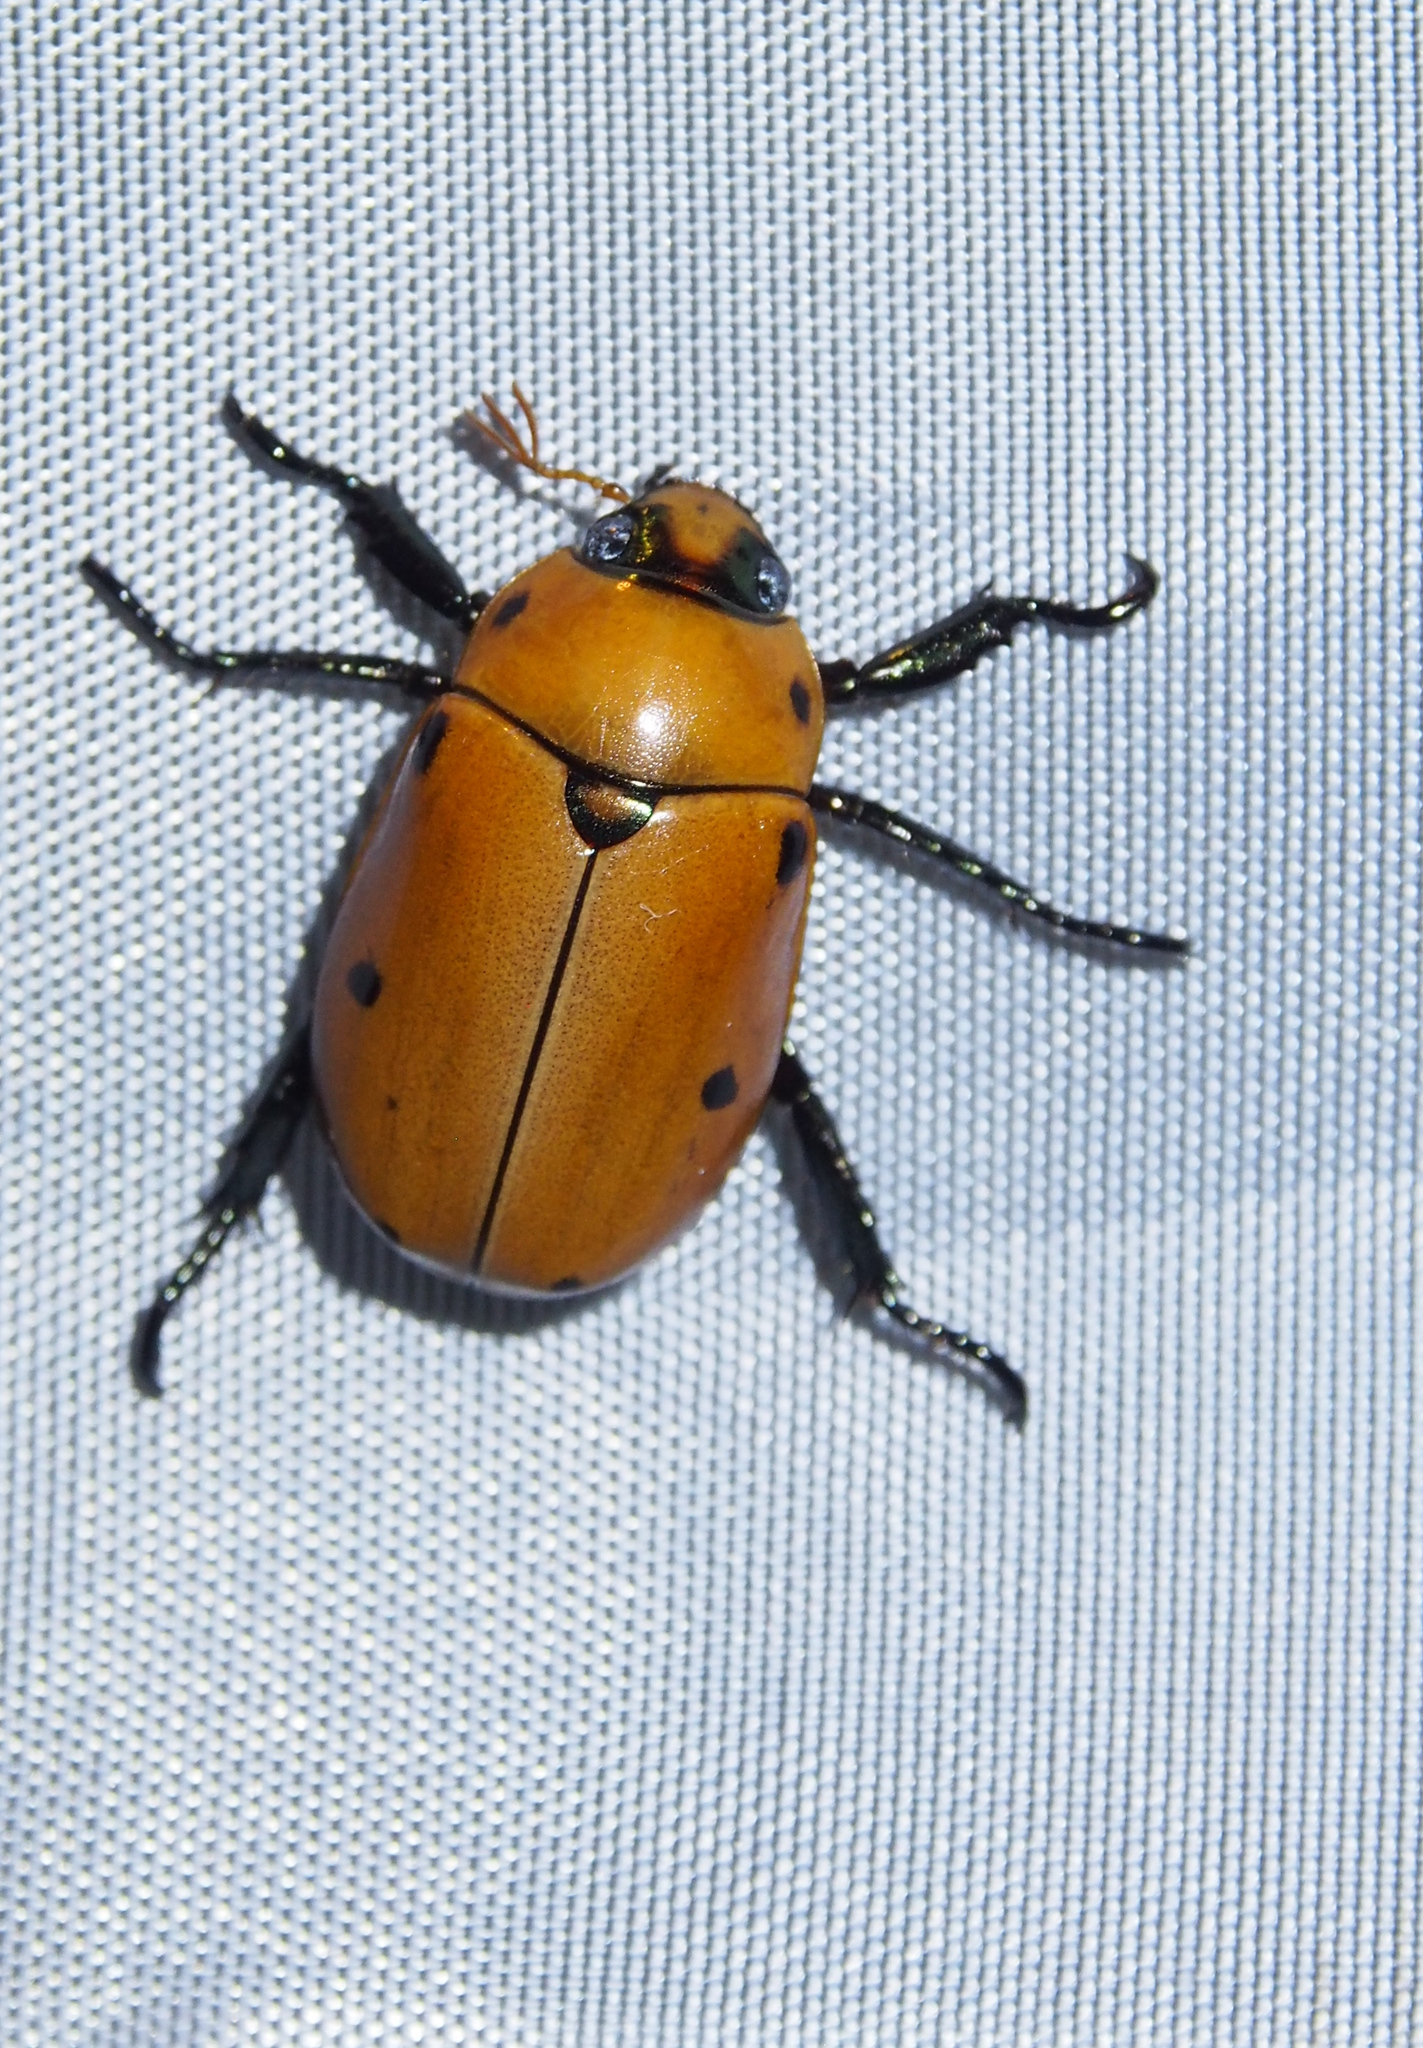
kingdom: Animalia
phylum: Arthropoda
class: Insecta
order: Coleoptera
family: Scarabaeidae
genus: Pelidnota
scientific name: Pelidnota punctata
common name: Grapevine beetle
